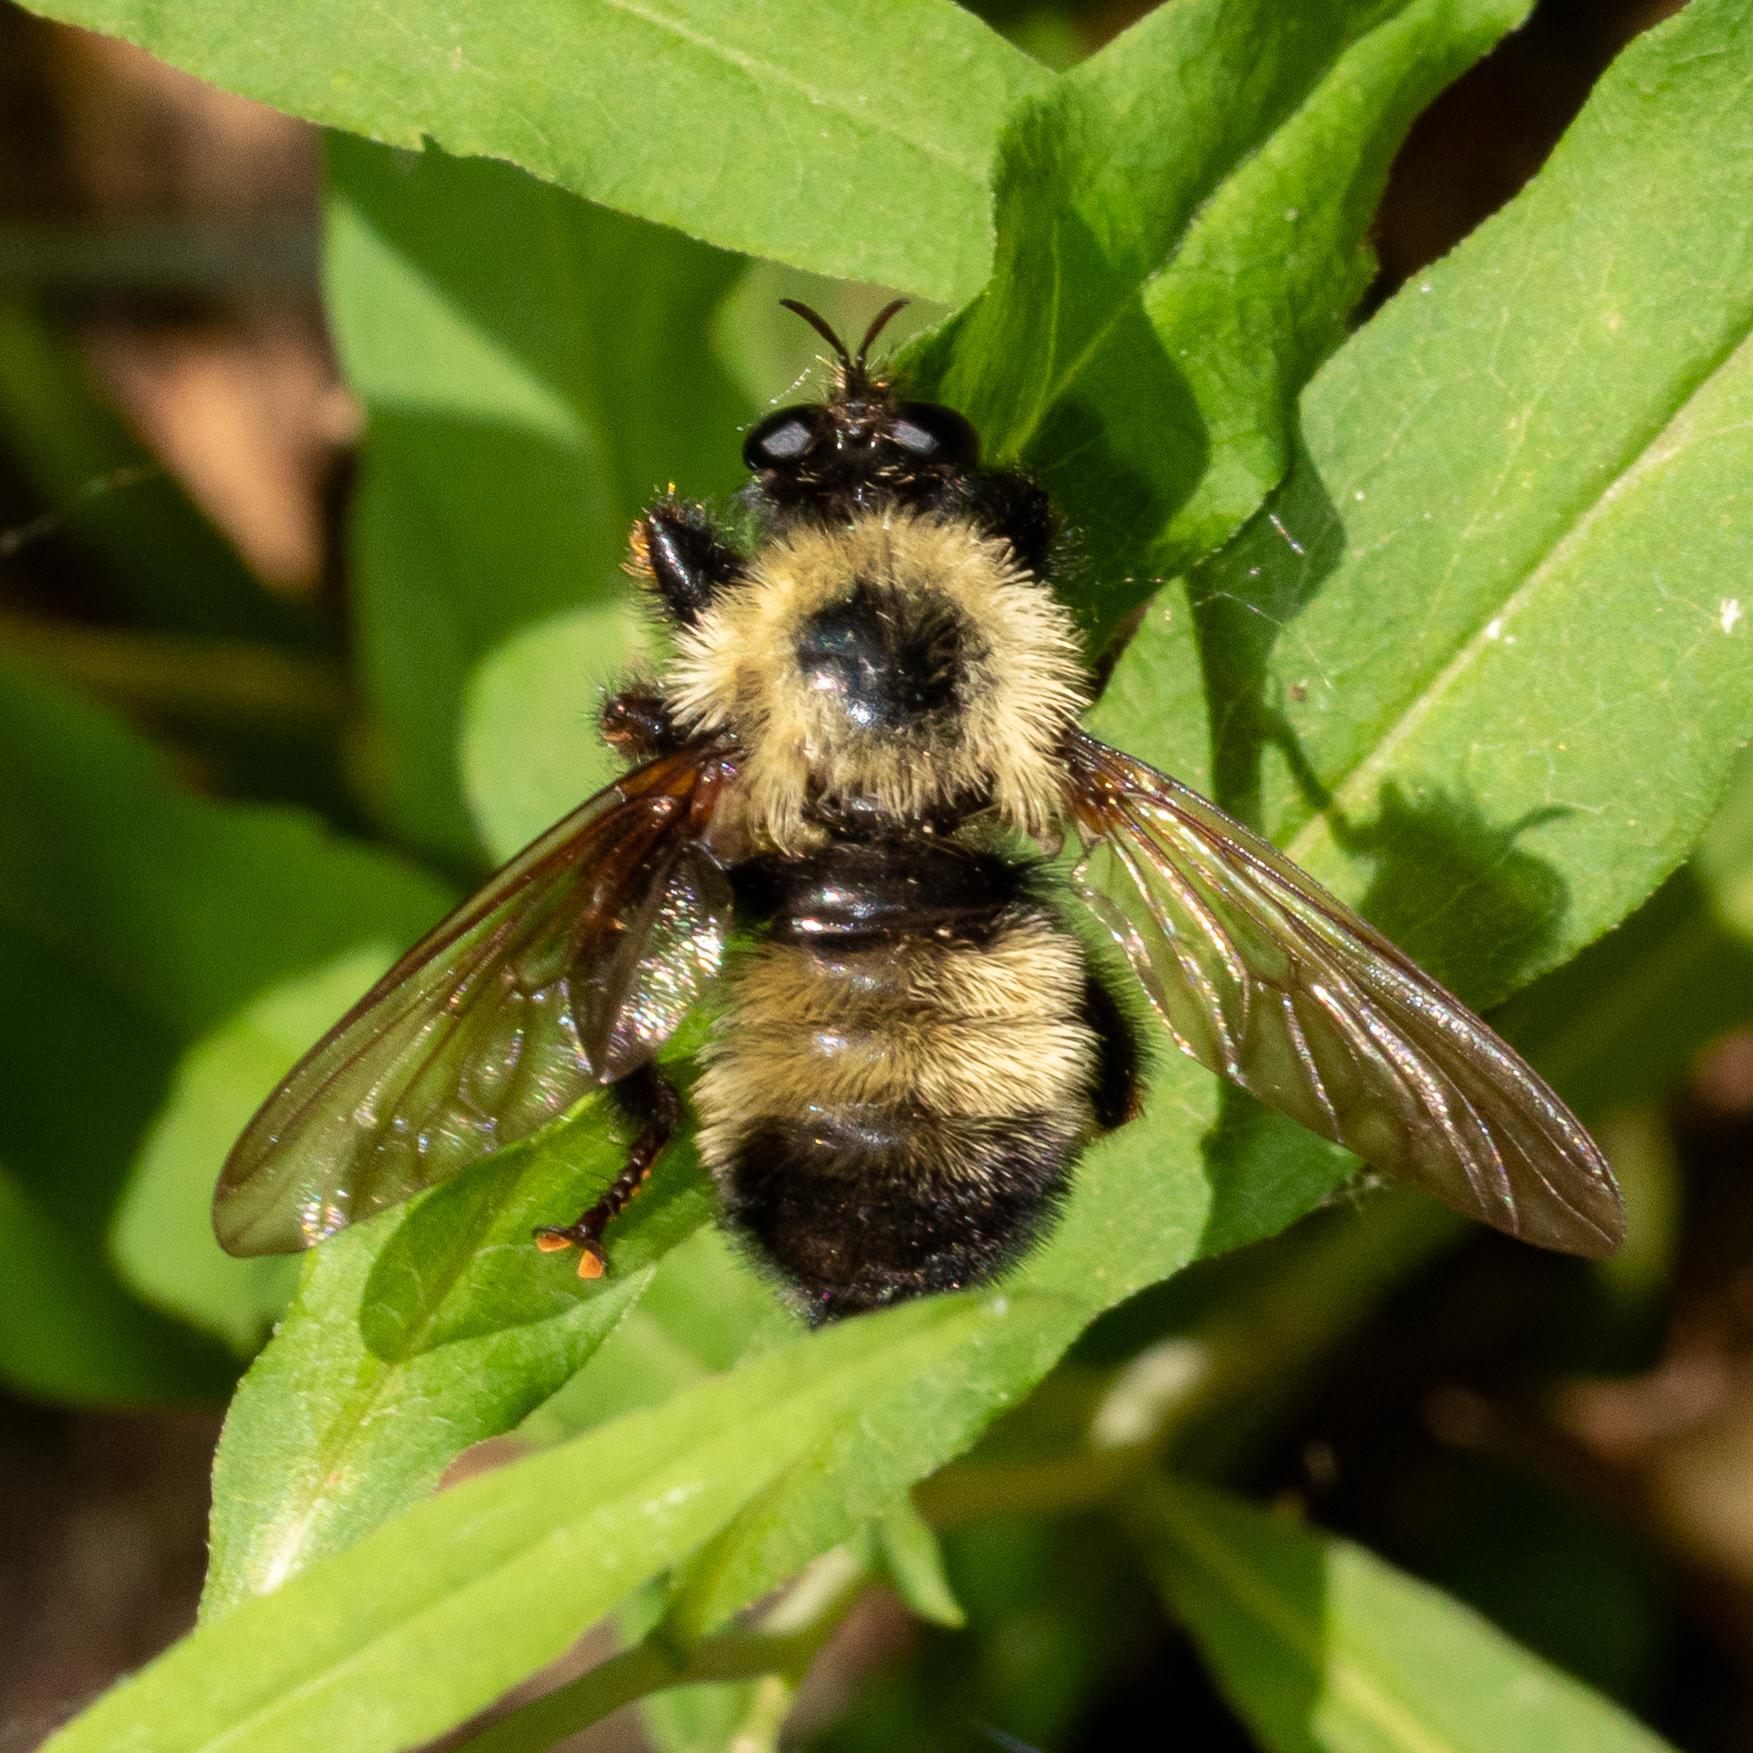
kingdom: Animalia
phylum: Arthropoda
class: Insecta
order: Diptera
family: Asilidae
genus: Laphria
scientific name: Laphria thoracica
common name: Bumble bee mimic robber fly
